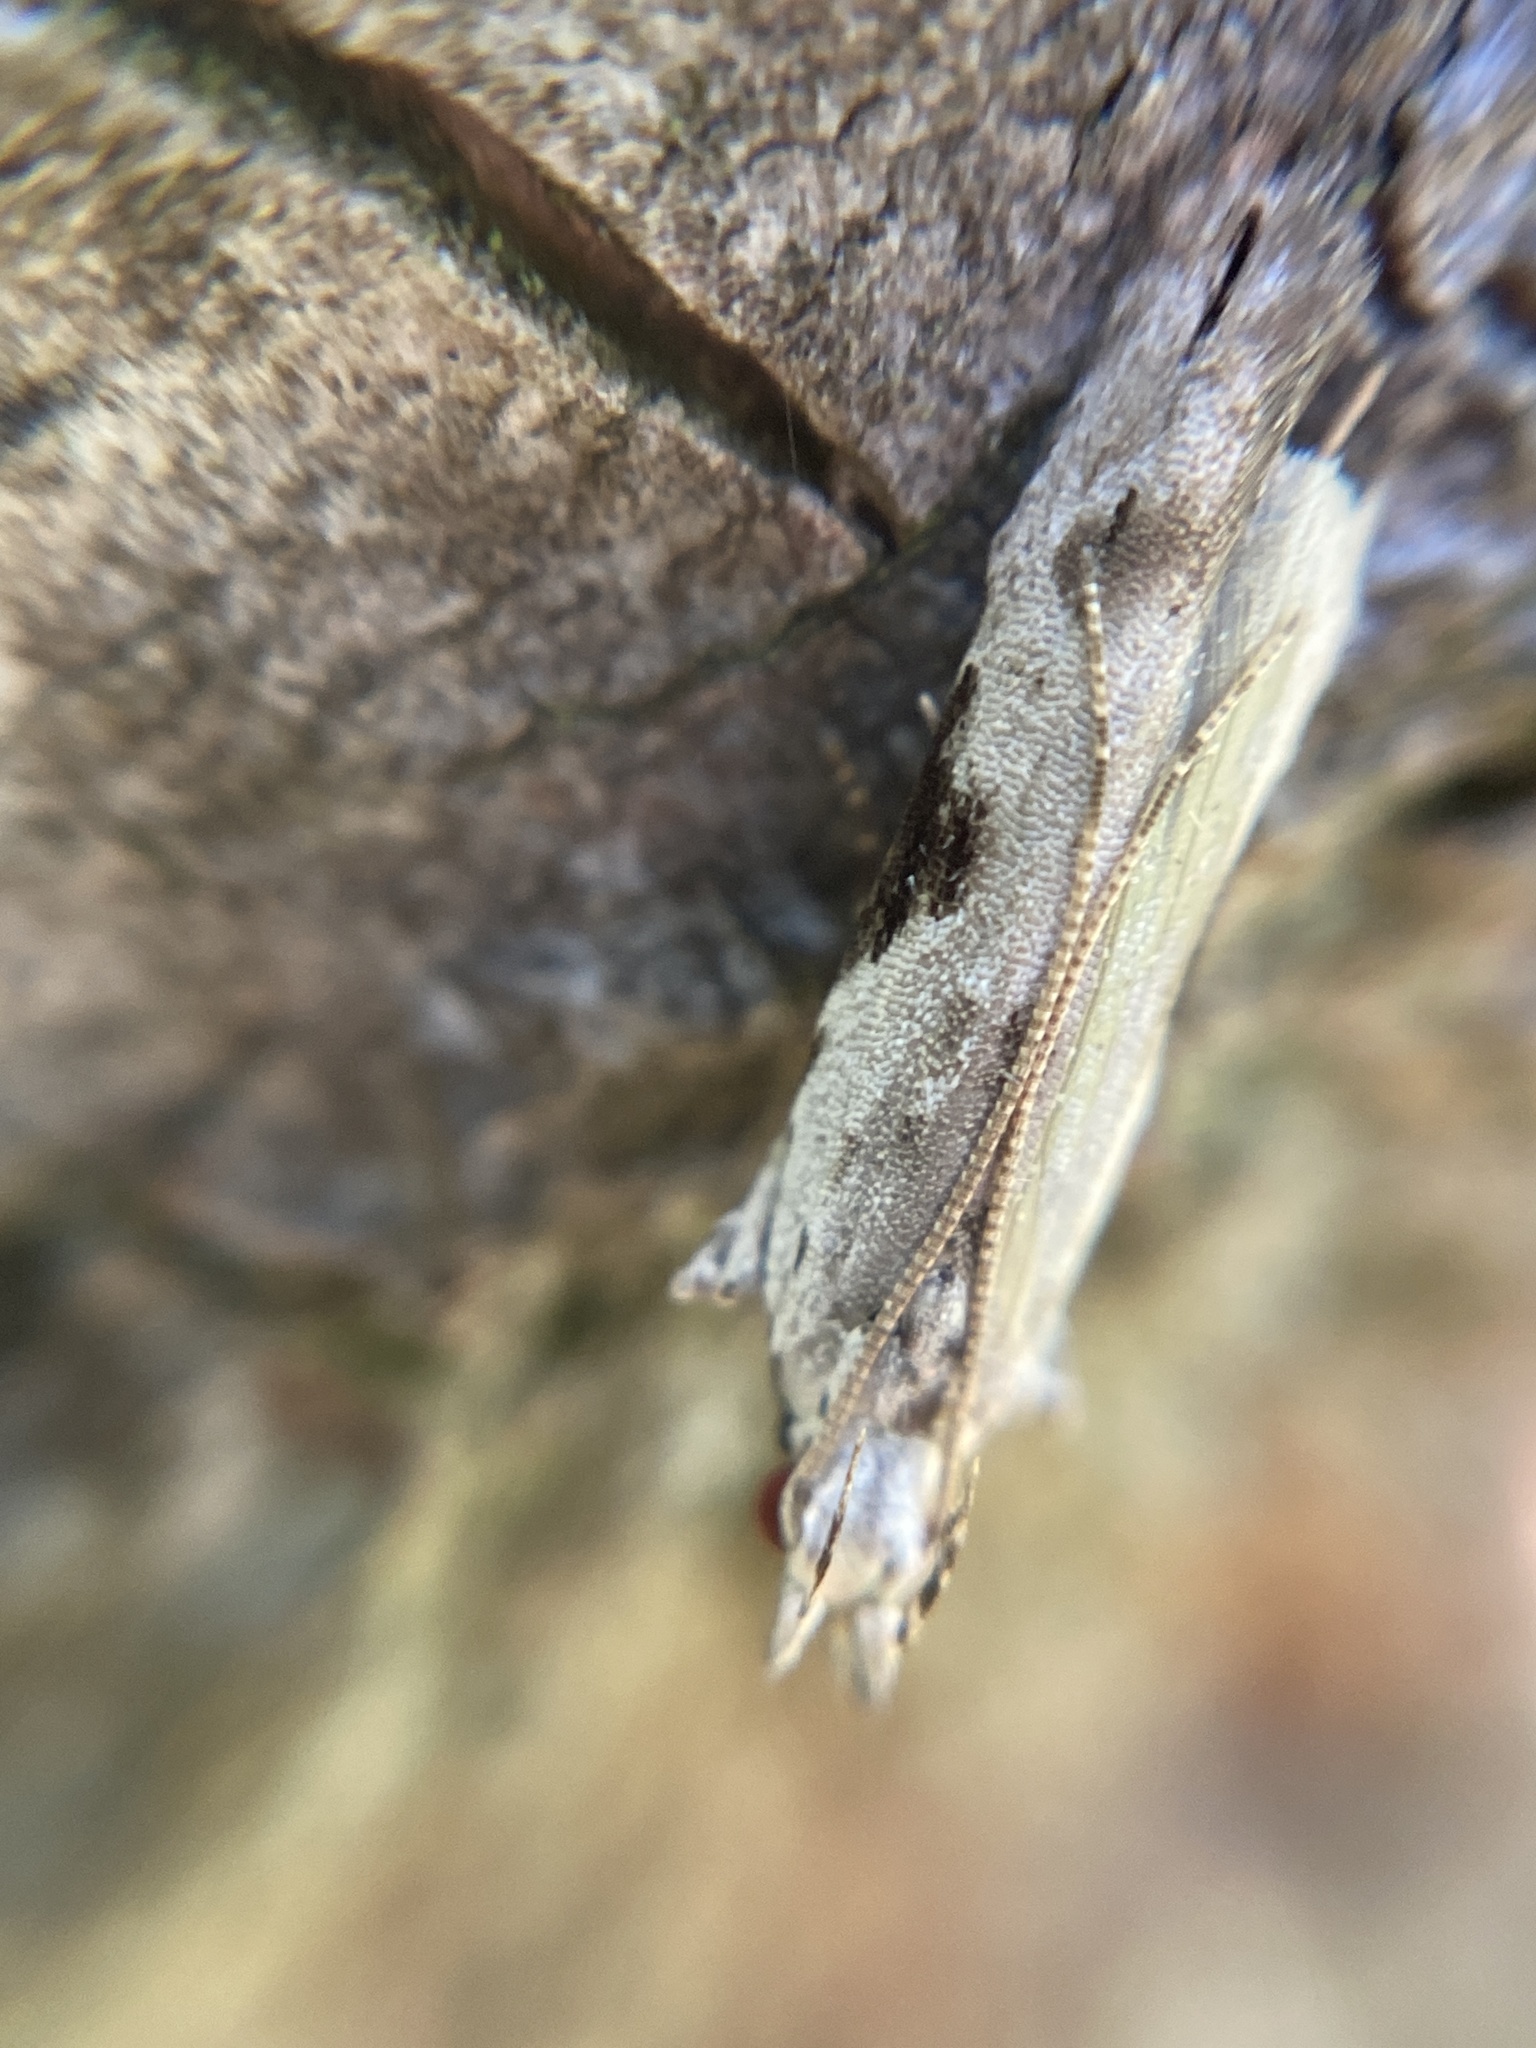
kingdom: Animalia
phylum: Arthropoda
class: Insecta
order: Lepidoptera
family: Gelechiidae
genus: Hypatima
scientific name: Hypatima rhomboidella
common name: Square-spot crest
